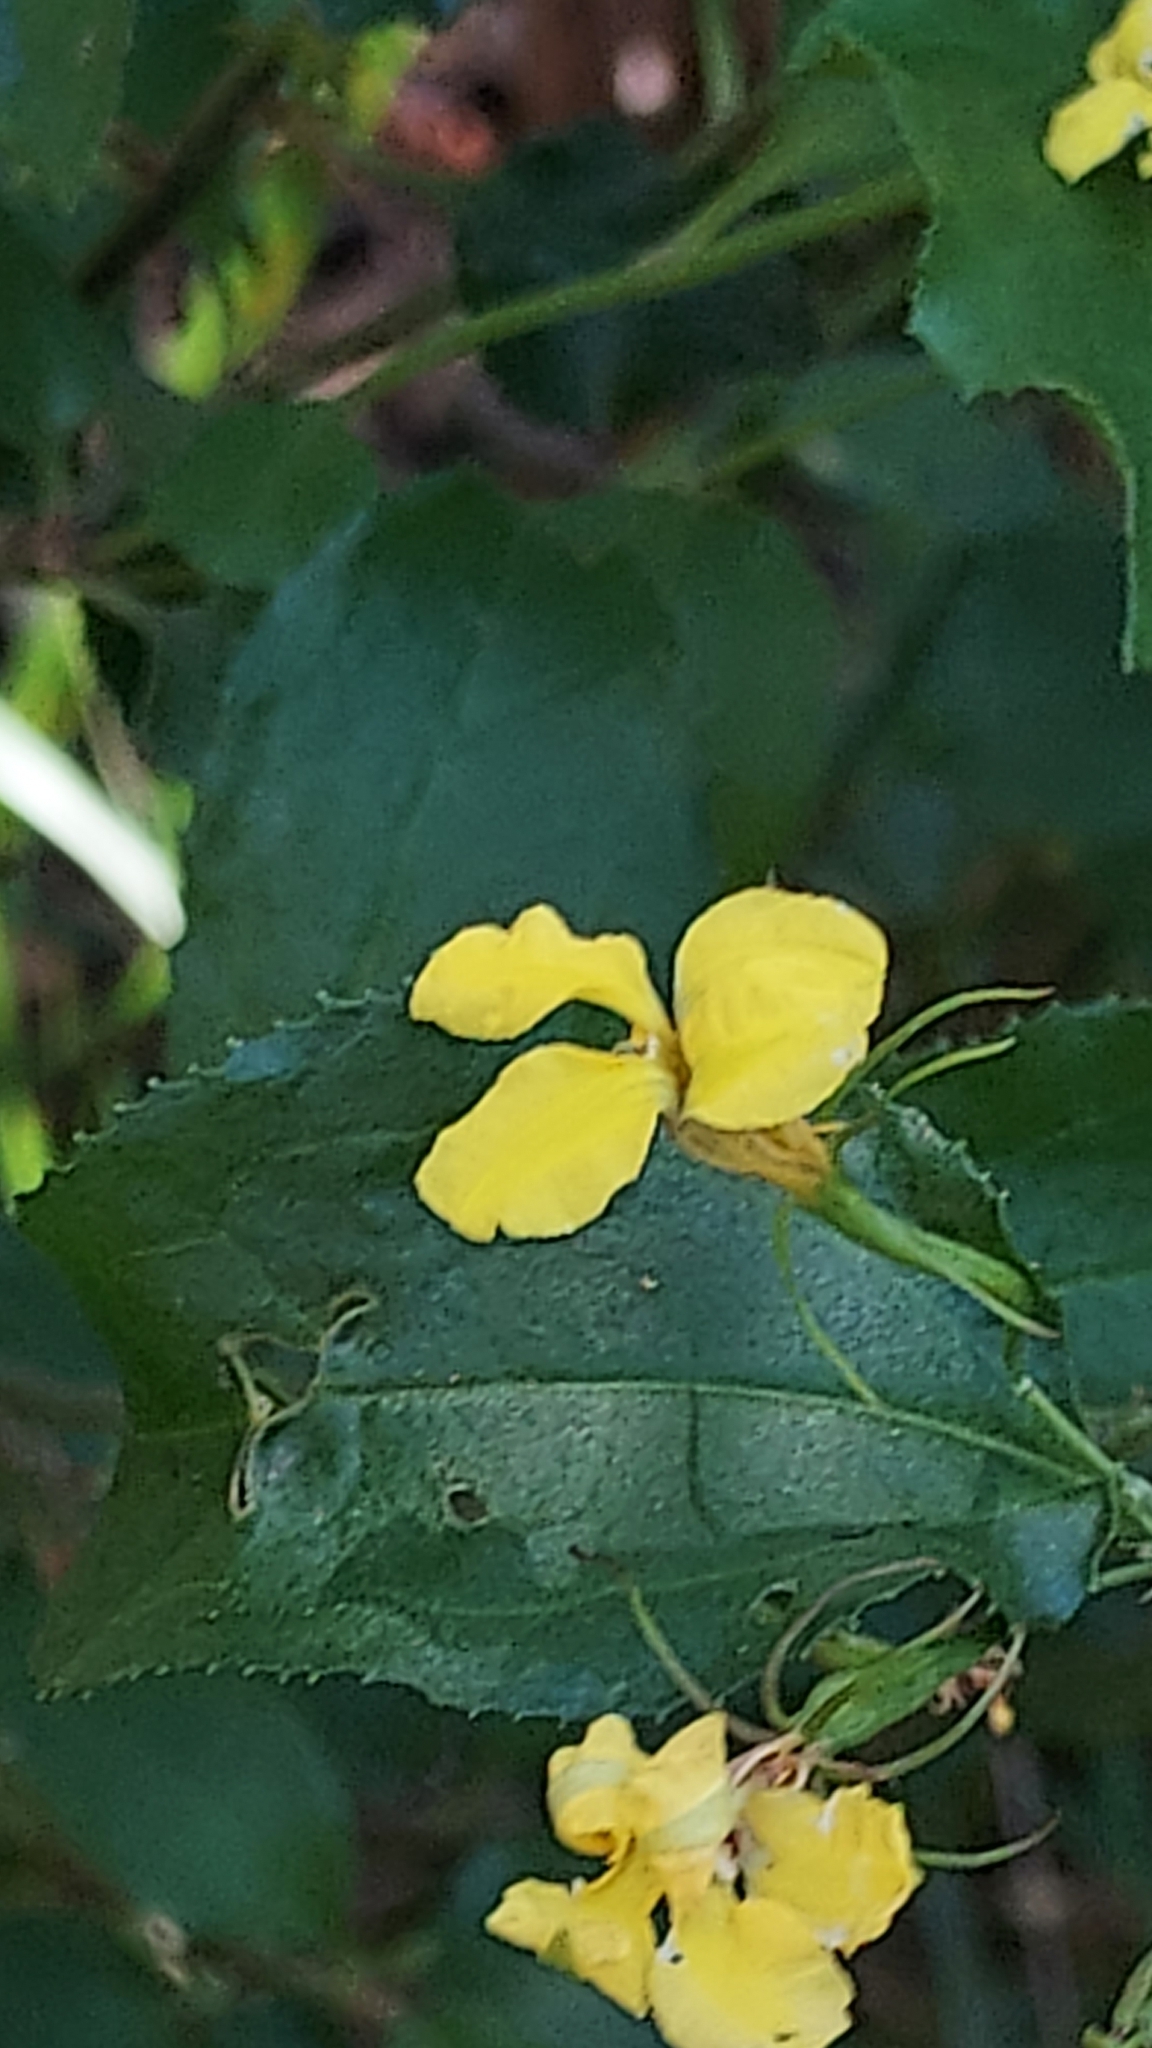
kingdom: Plantae
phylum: Tracheophyta
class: Magnoliopsida
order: Asterales
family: Goodeniaceae
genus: Goodenia
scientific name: Goodenia ovata
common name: Hop goodenia
